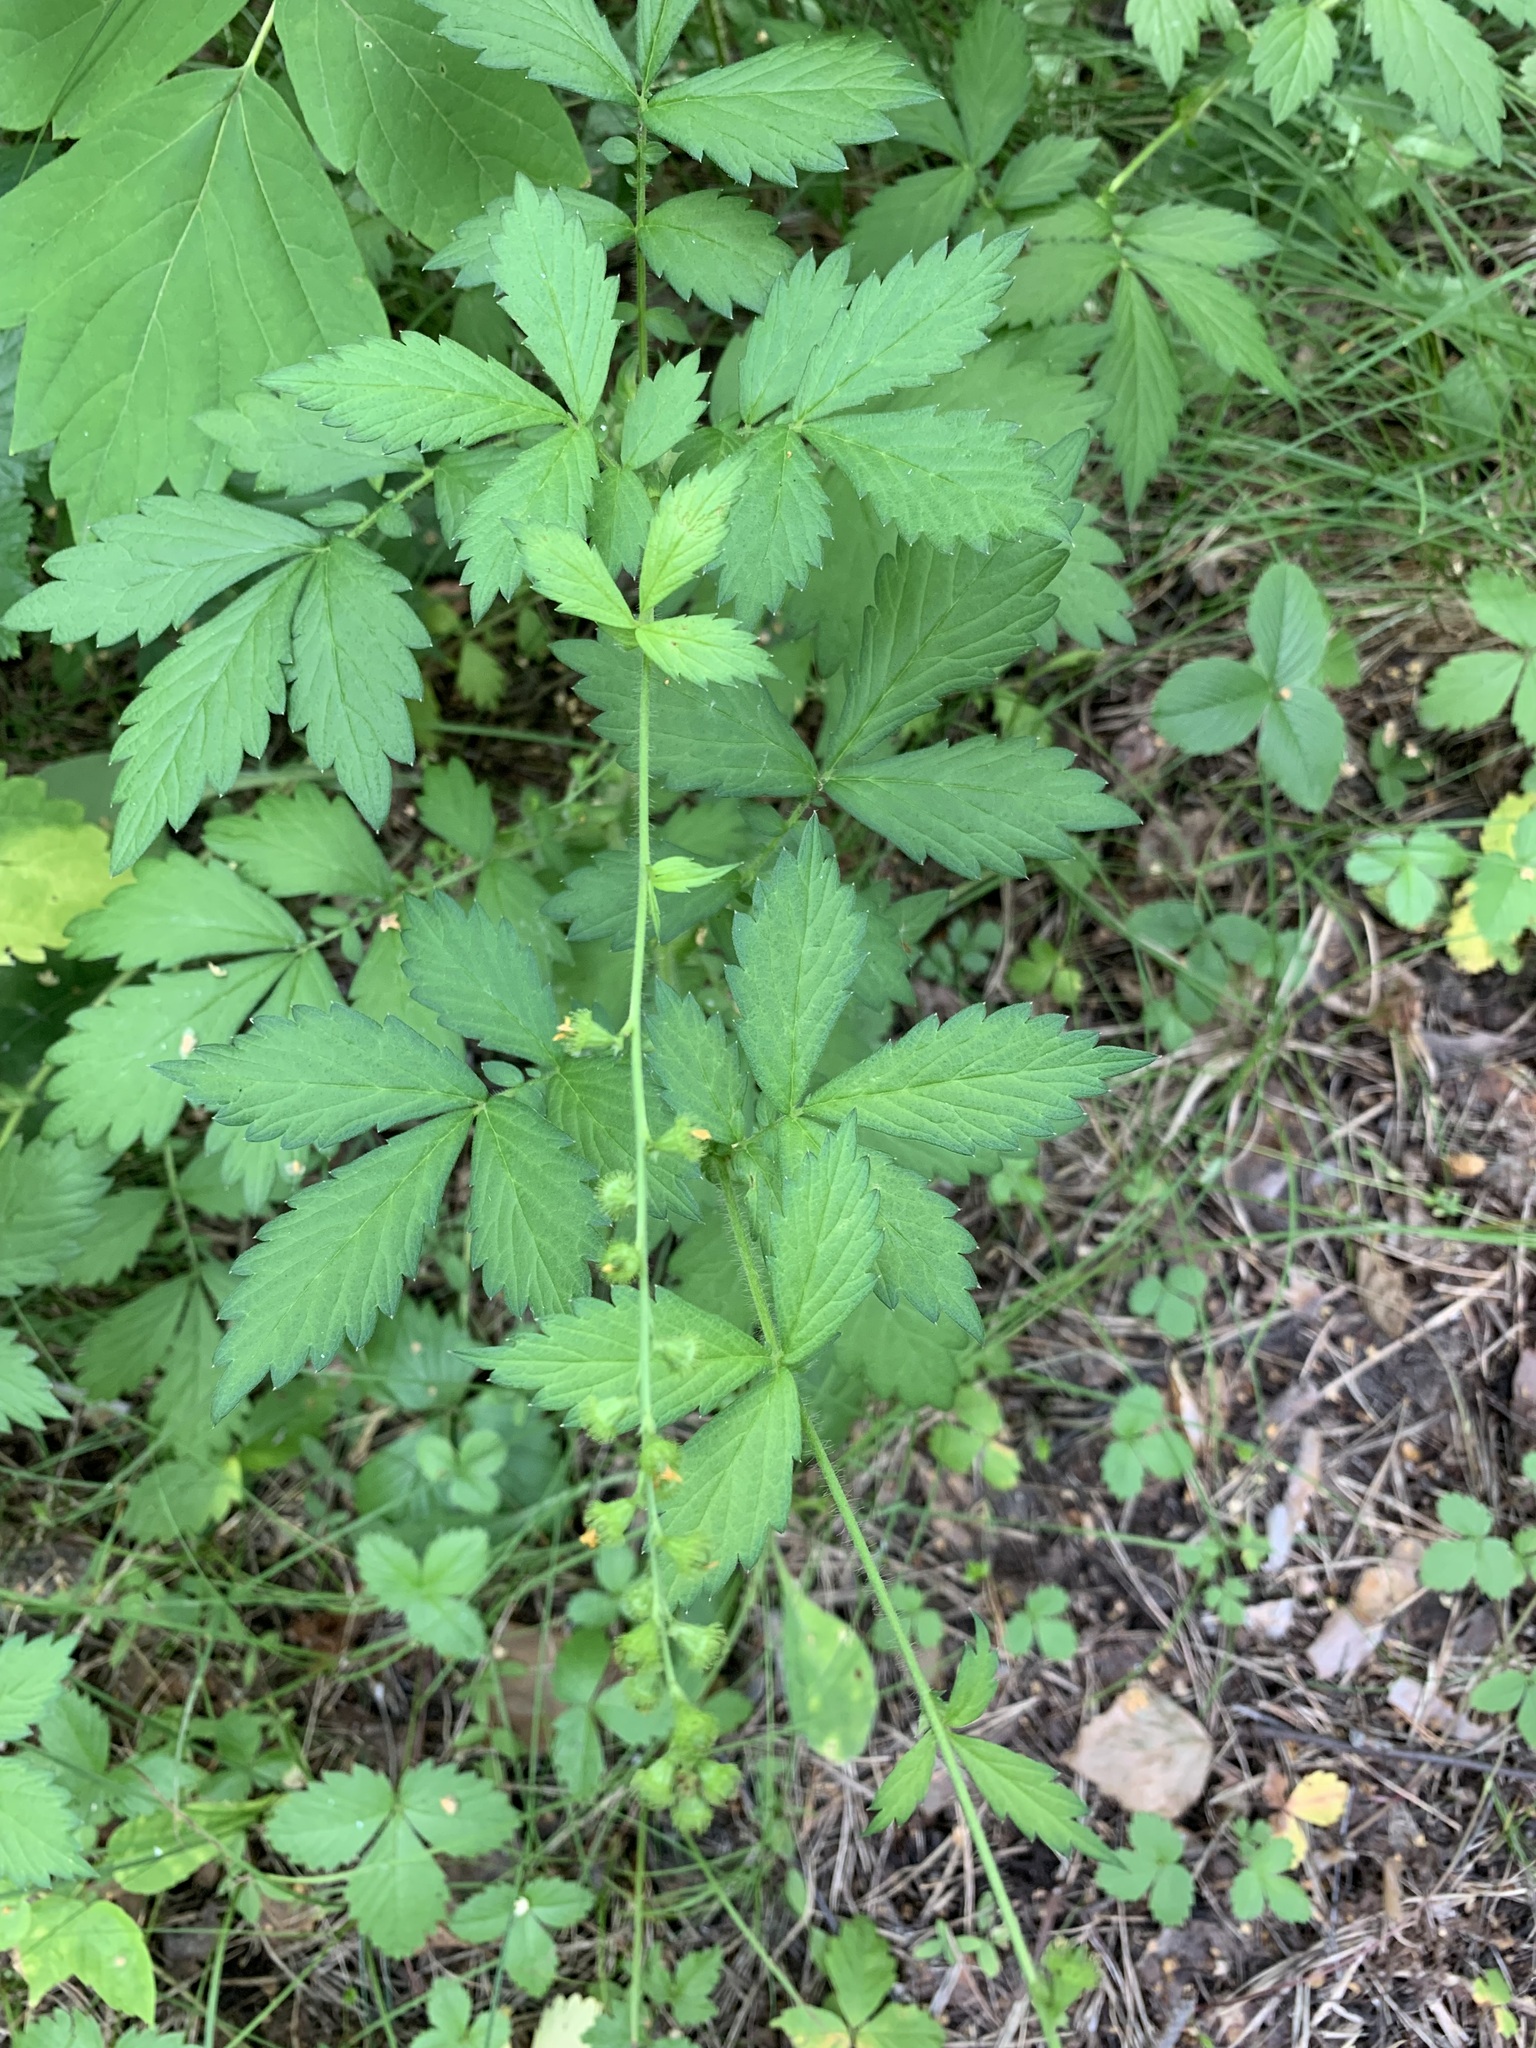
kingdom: Plantae
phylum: Tracheophyta
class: Magnoliopsida
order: Rosales
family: Rosaceae
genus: Agrimonia
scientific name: Agrimonia pilosa
